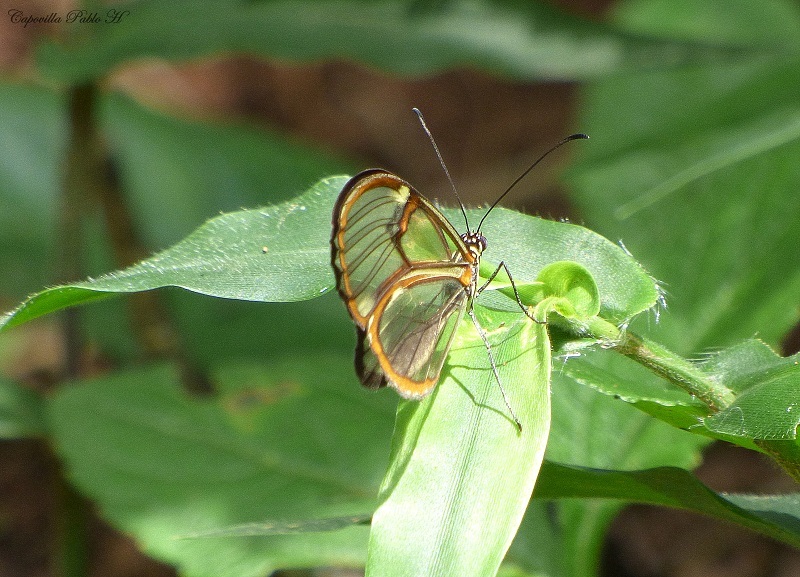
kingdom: Animalia
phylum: Arthropoda
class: Insecta
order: Lepidoptera
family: Nymphalidae
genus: Episcada
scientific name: Episcada hymenaea
